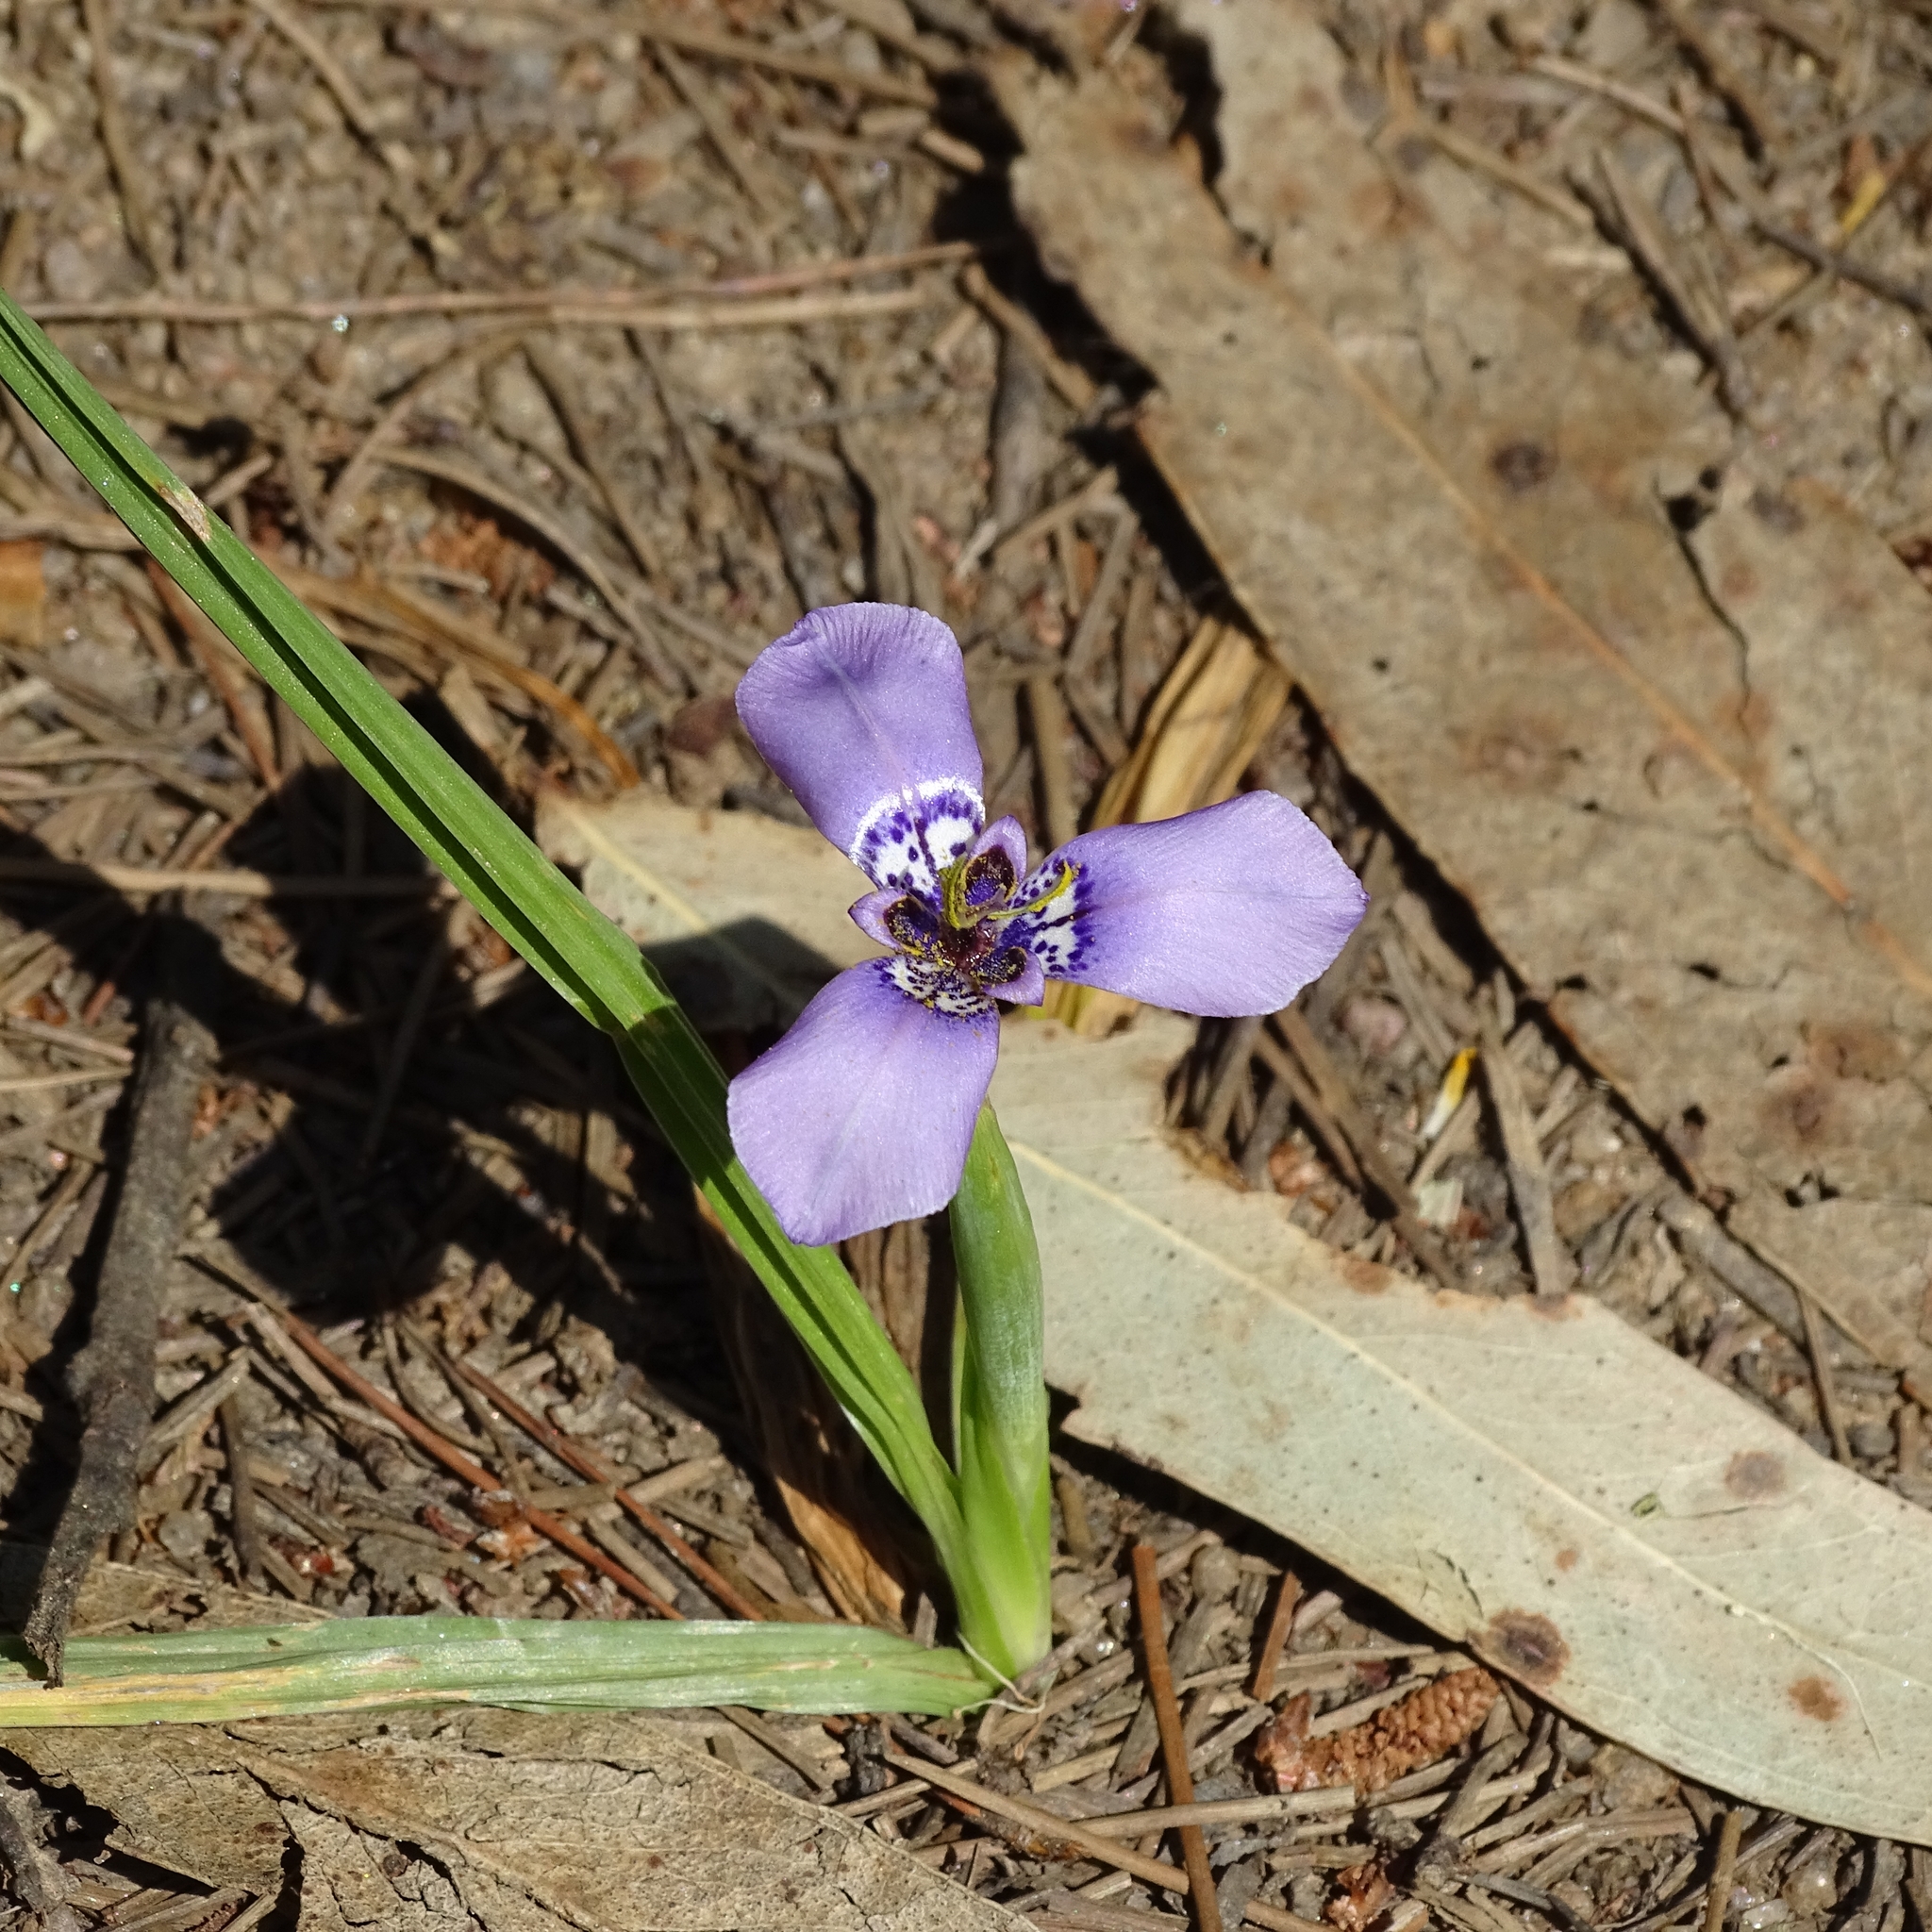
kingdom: Plantae
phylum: Tracheophyta
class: Liliopsida
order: Asparagales
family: Iridaceae
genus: Herbertia
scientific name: Herbertia lahue
